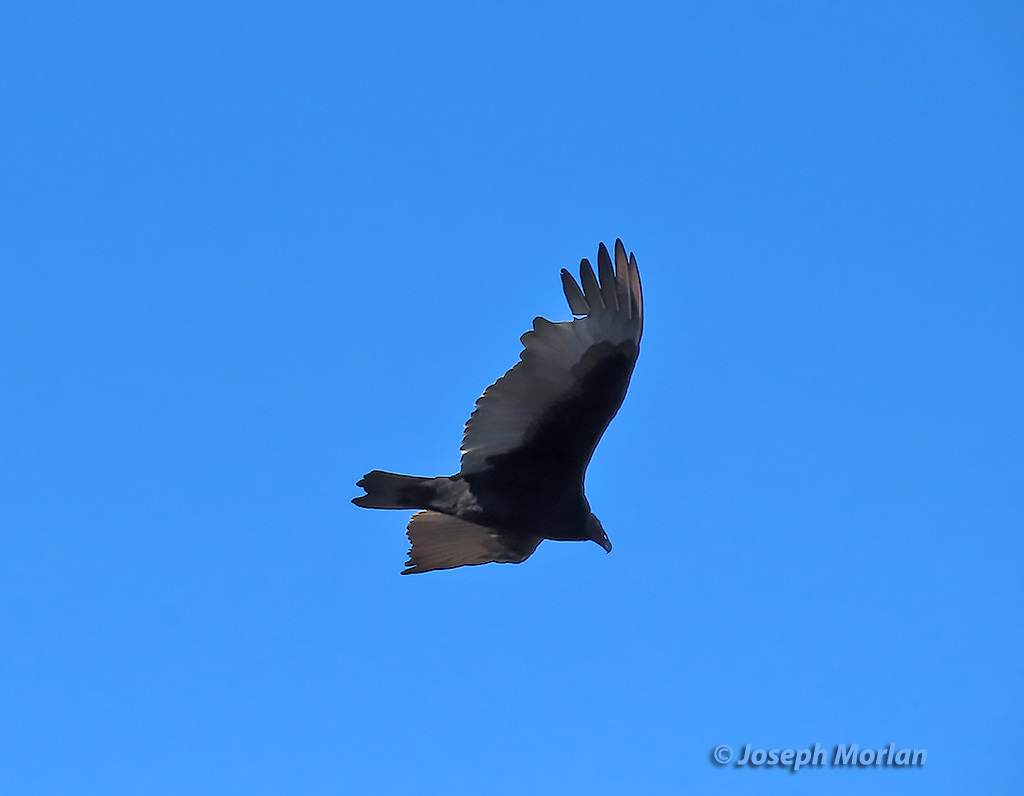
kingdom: Animalia
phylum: Chordata
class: Aves
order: Accipitriformes
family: Cathartidae
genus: Cathartes
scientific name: Cathartes aura
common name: Turkey vulture
